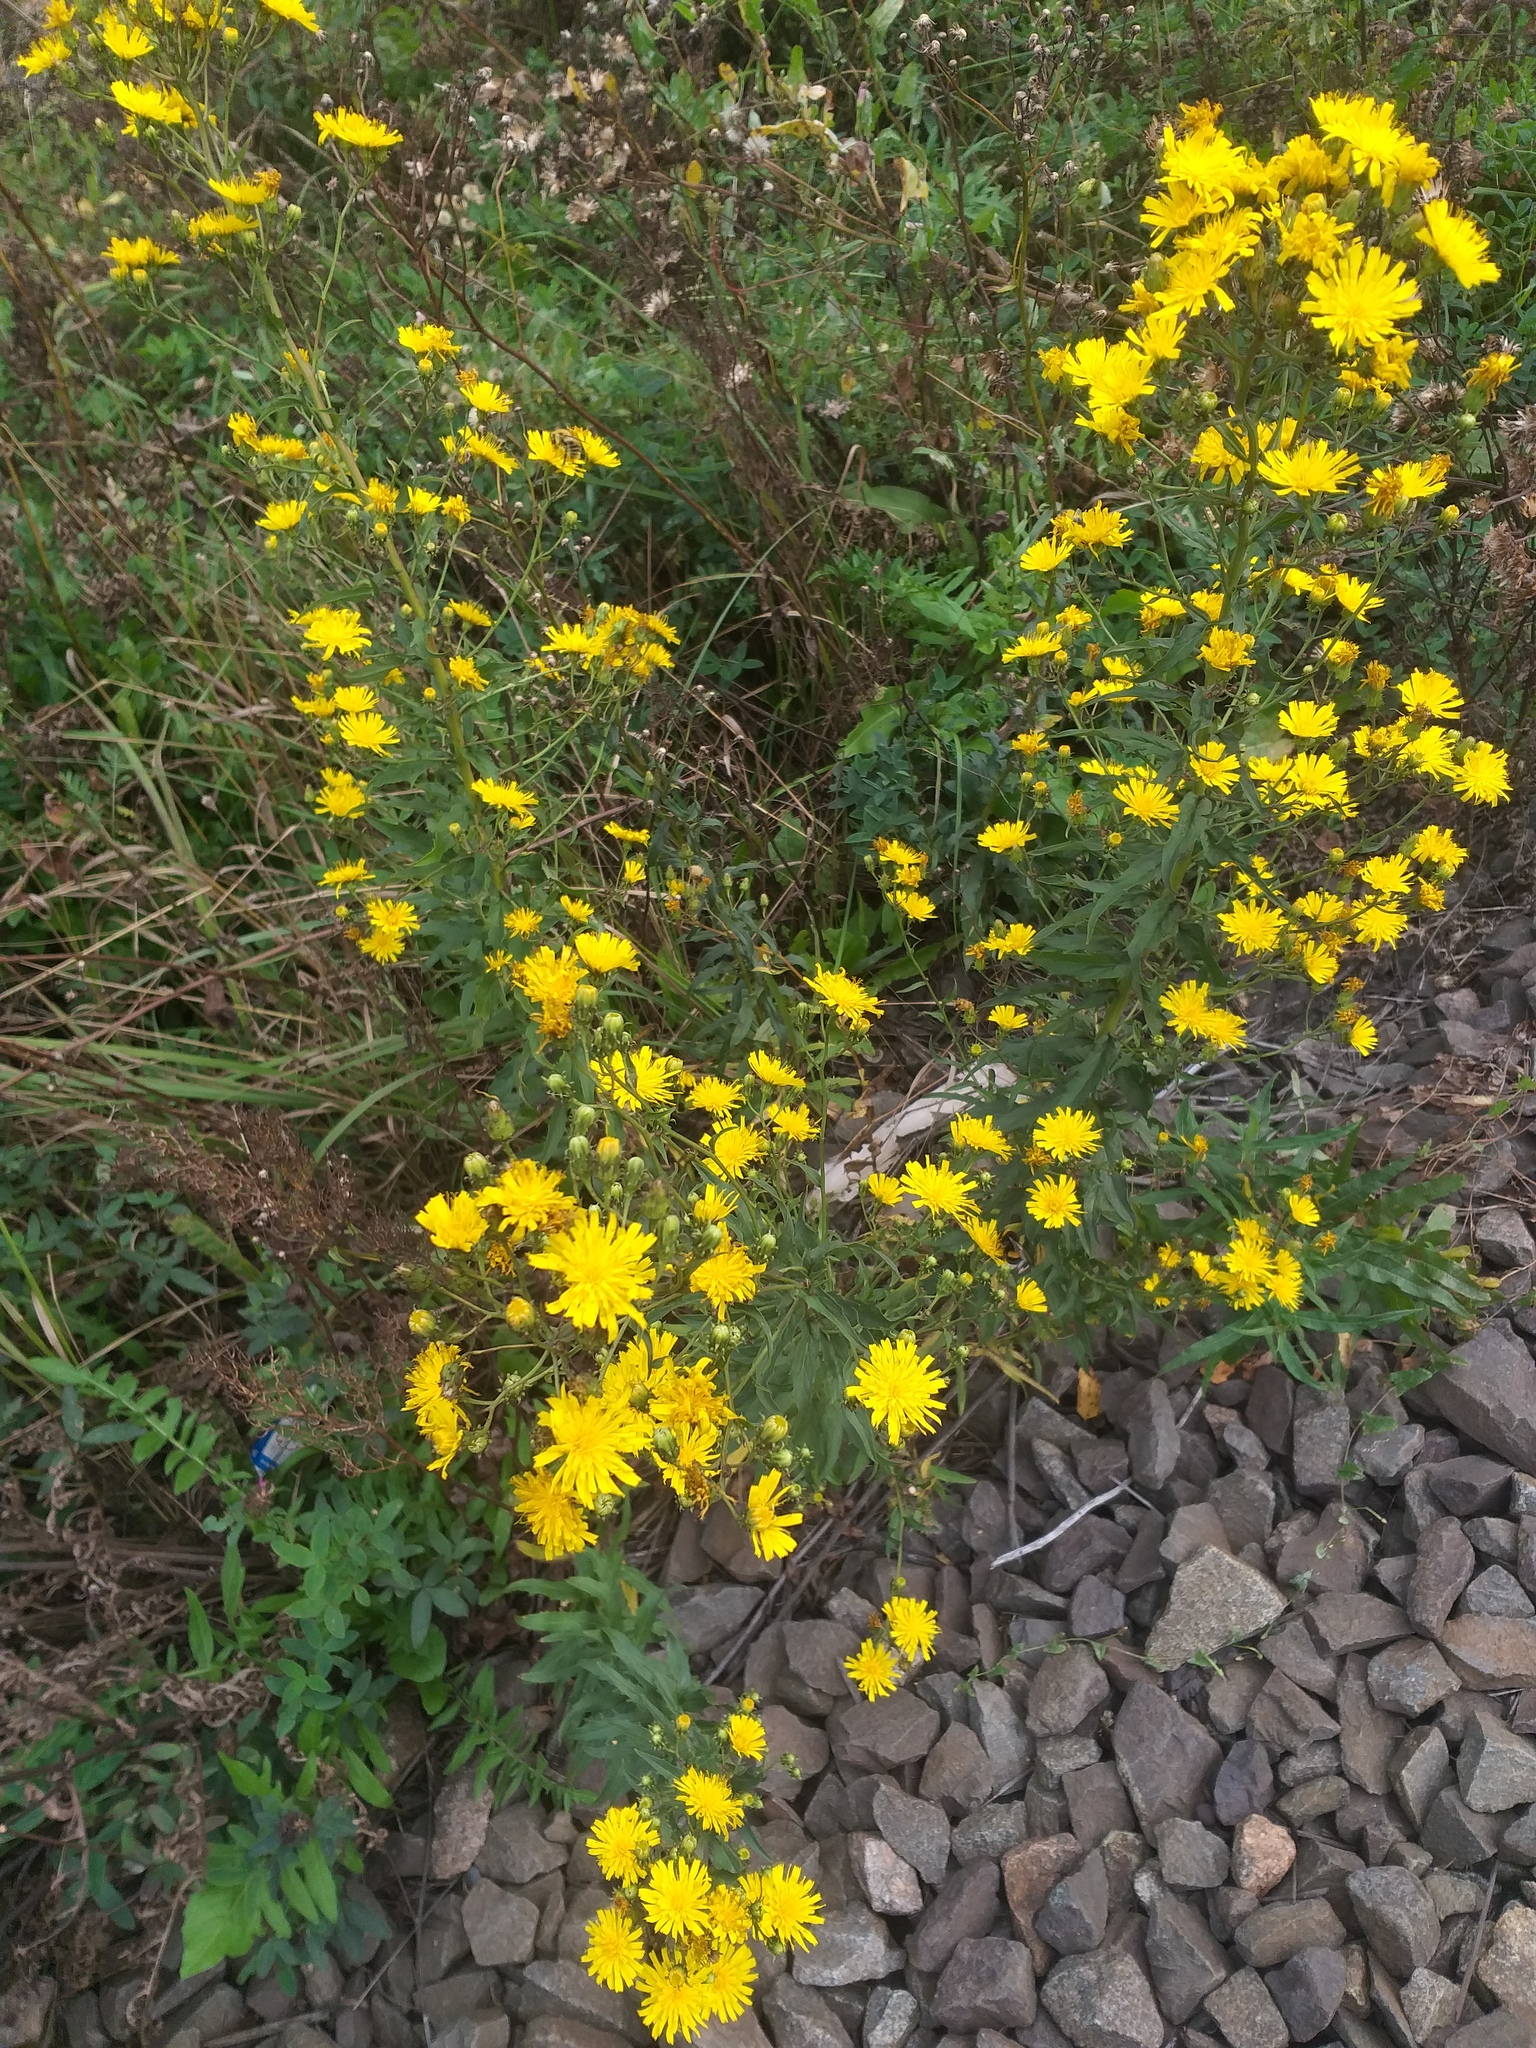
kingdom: Plantae
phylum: Tracheophyta
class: Magnoliopsida
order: Asterales
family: Asteraceae
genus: Hieracium
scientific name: Hieracium umbellatum
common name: Northern hawkweed
